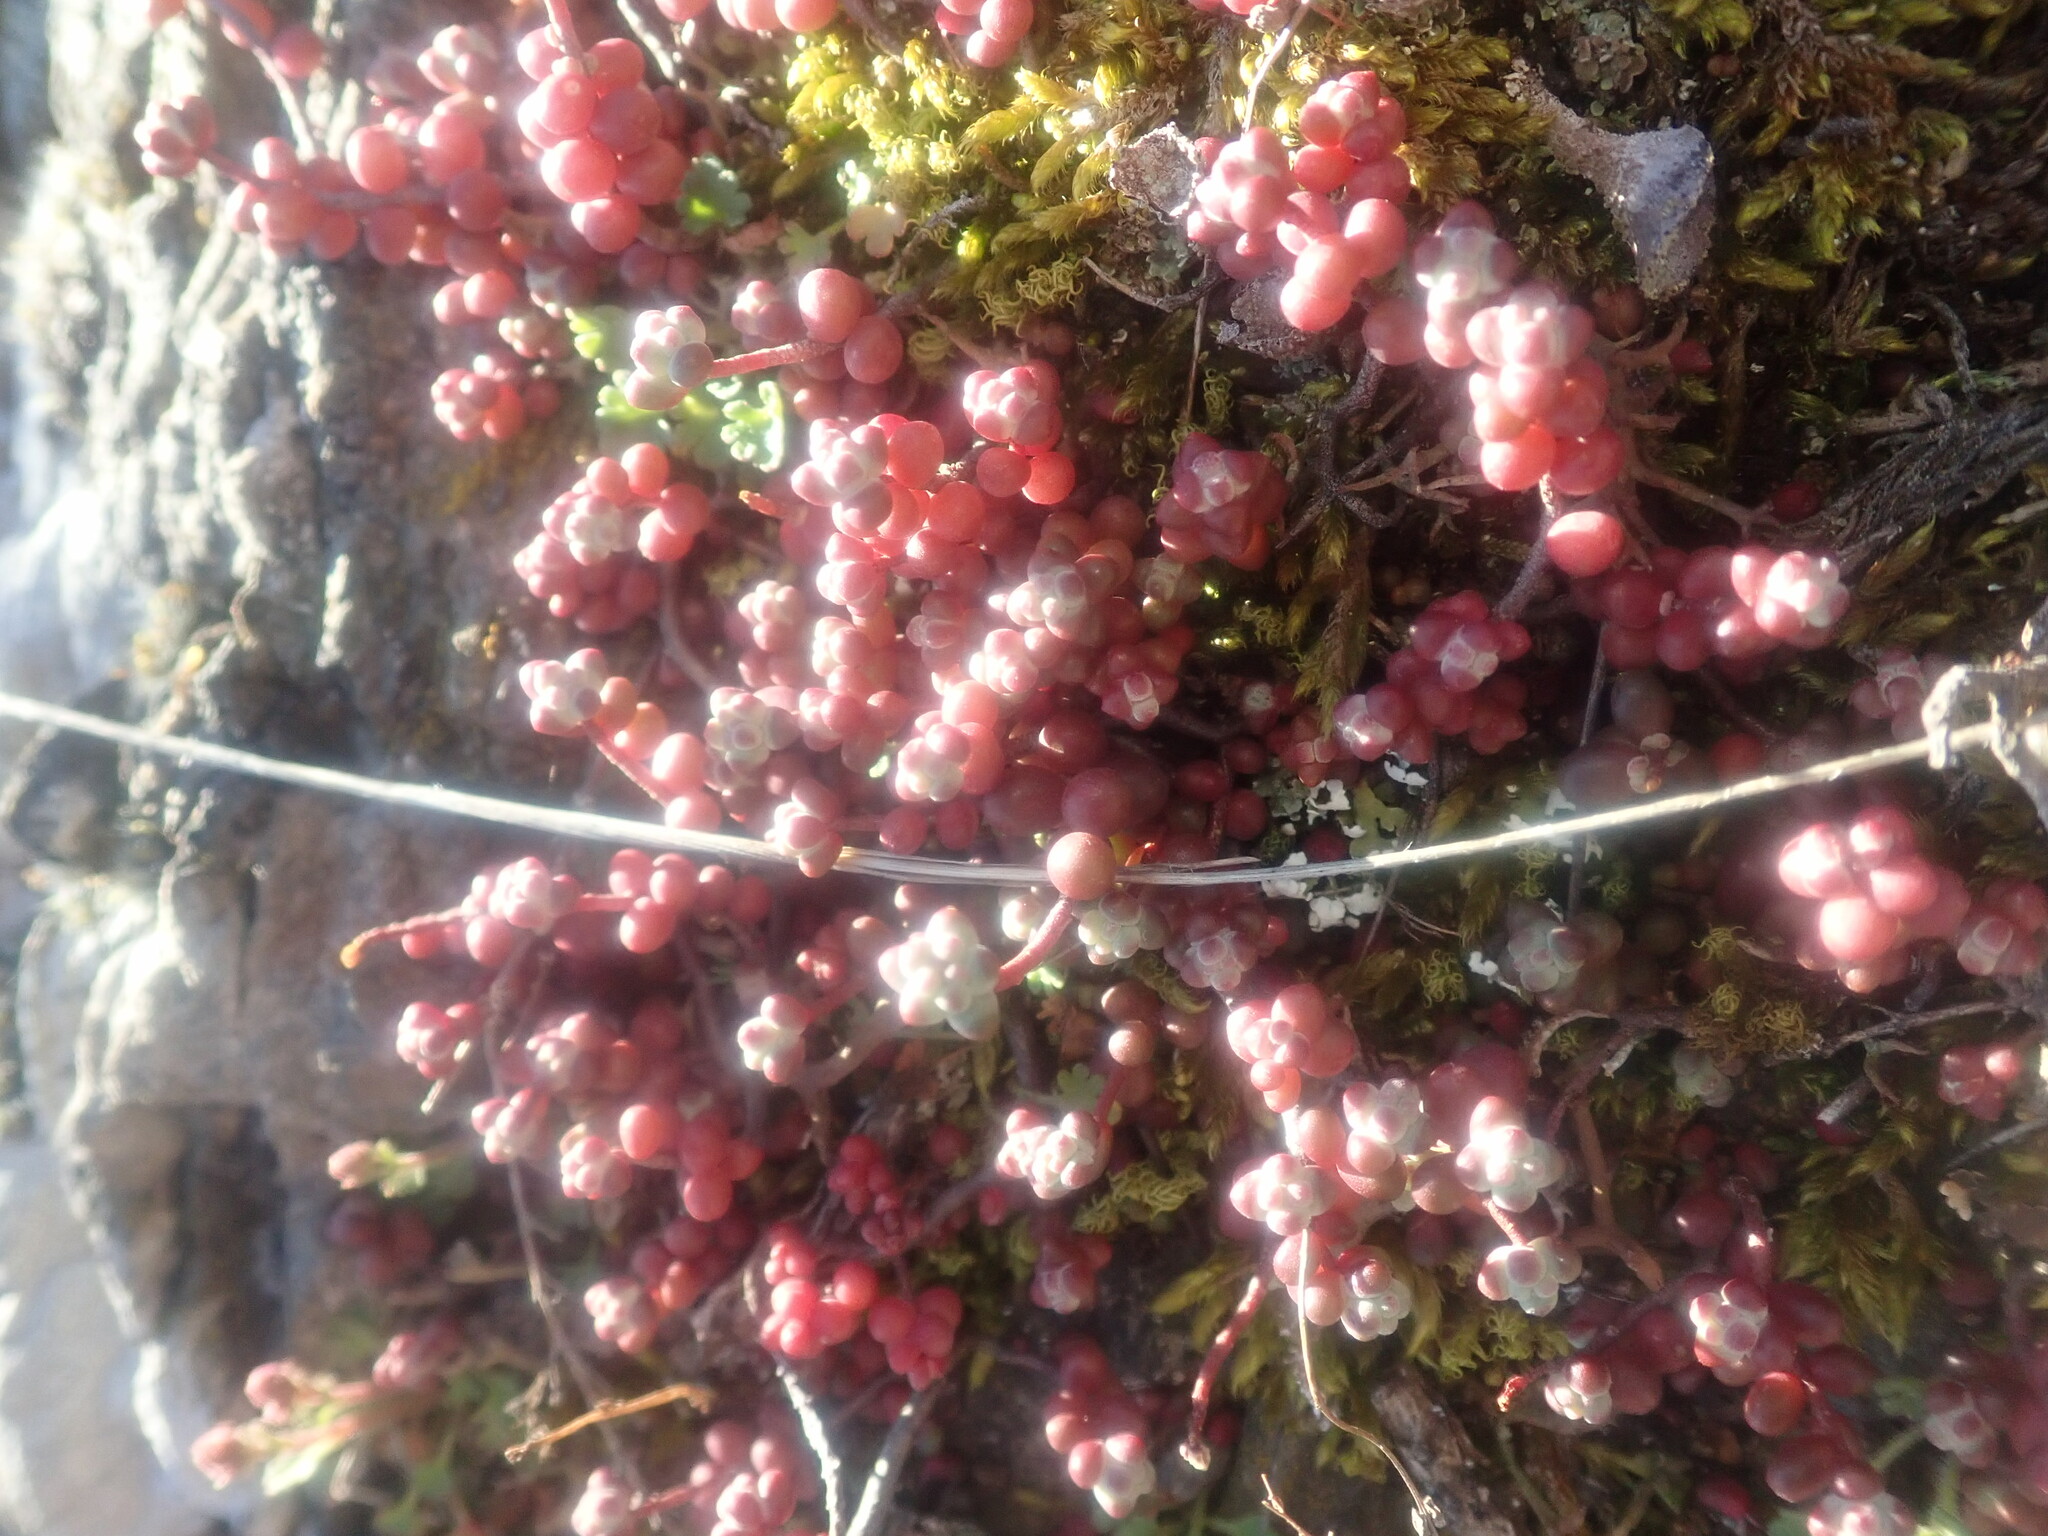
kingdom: Plantae
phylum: Tracheophyta
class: Magnoliopsida
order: Saxifragales
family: Crassulaceae
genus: Sedum
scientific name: Sedum brevifolium
